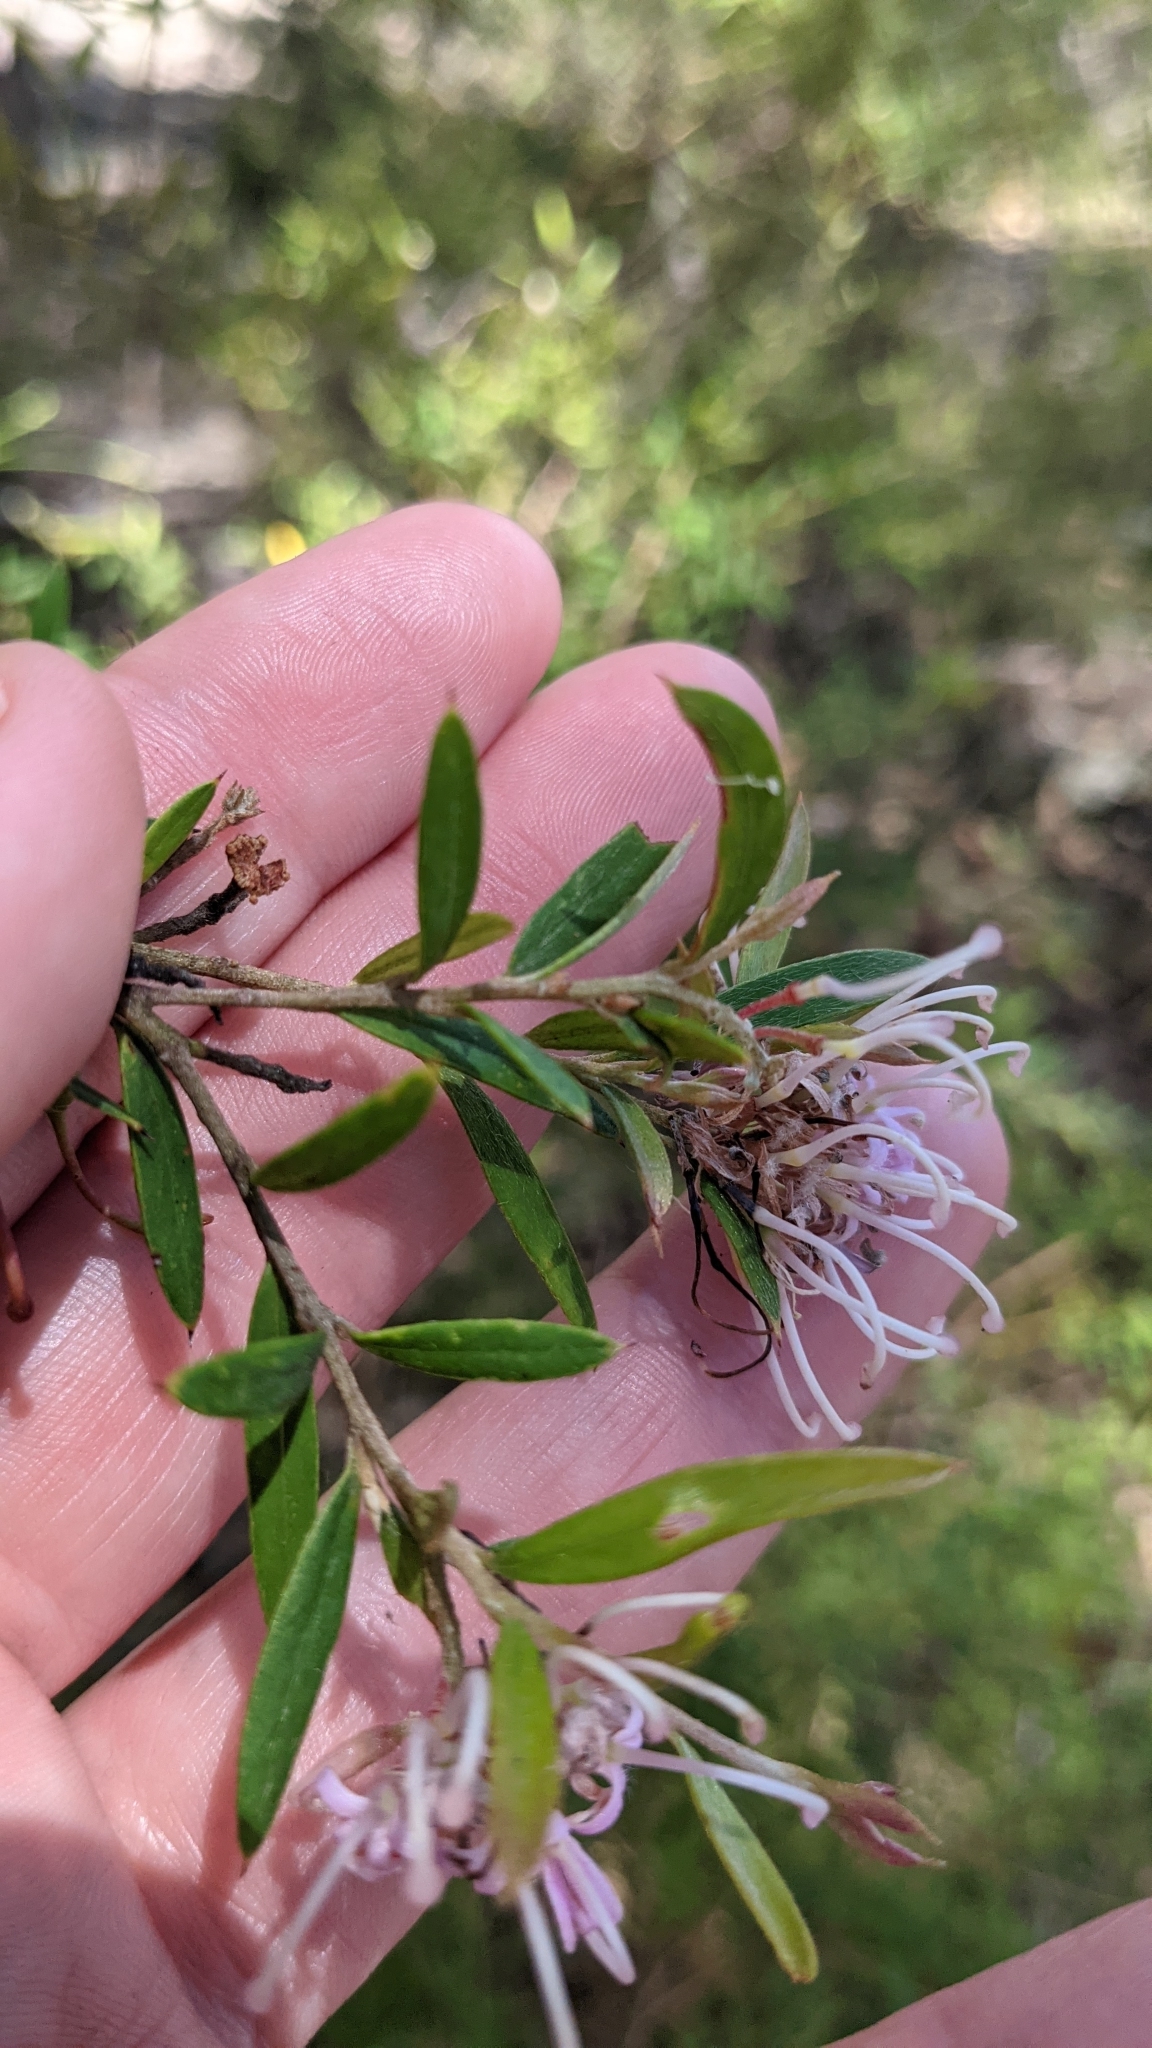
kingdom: Plantae
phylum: Tracheophyta
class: Magnoliopsida
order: Proteales
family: Proteaceae
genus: Grevillea
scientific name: Grevillea sericea
